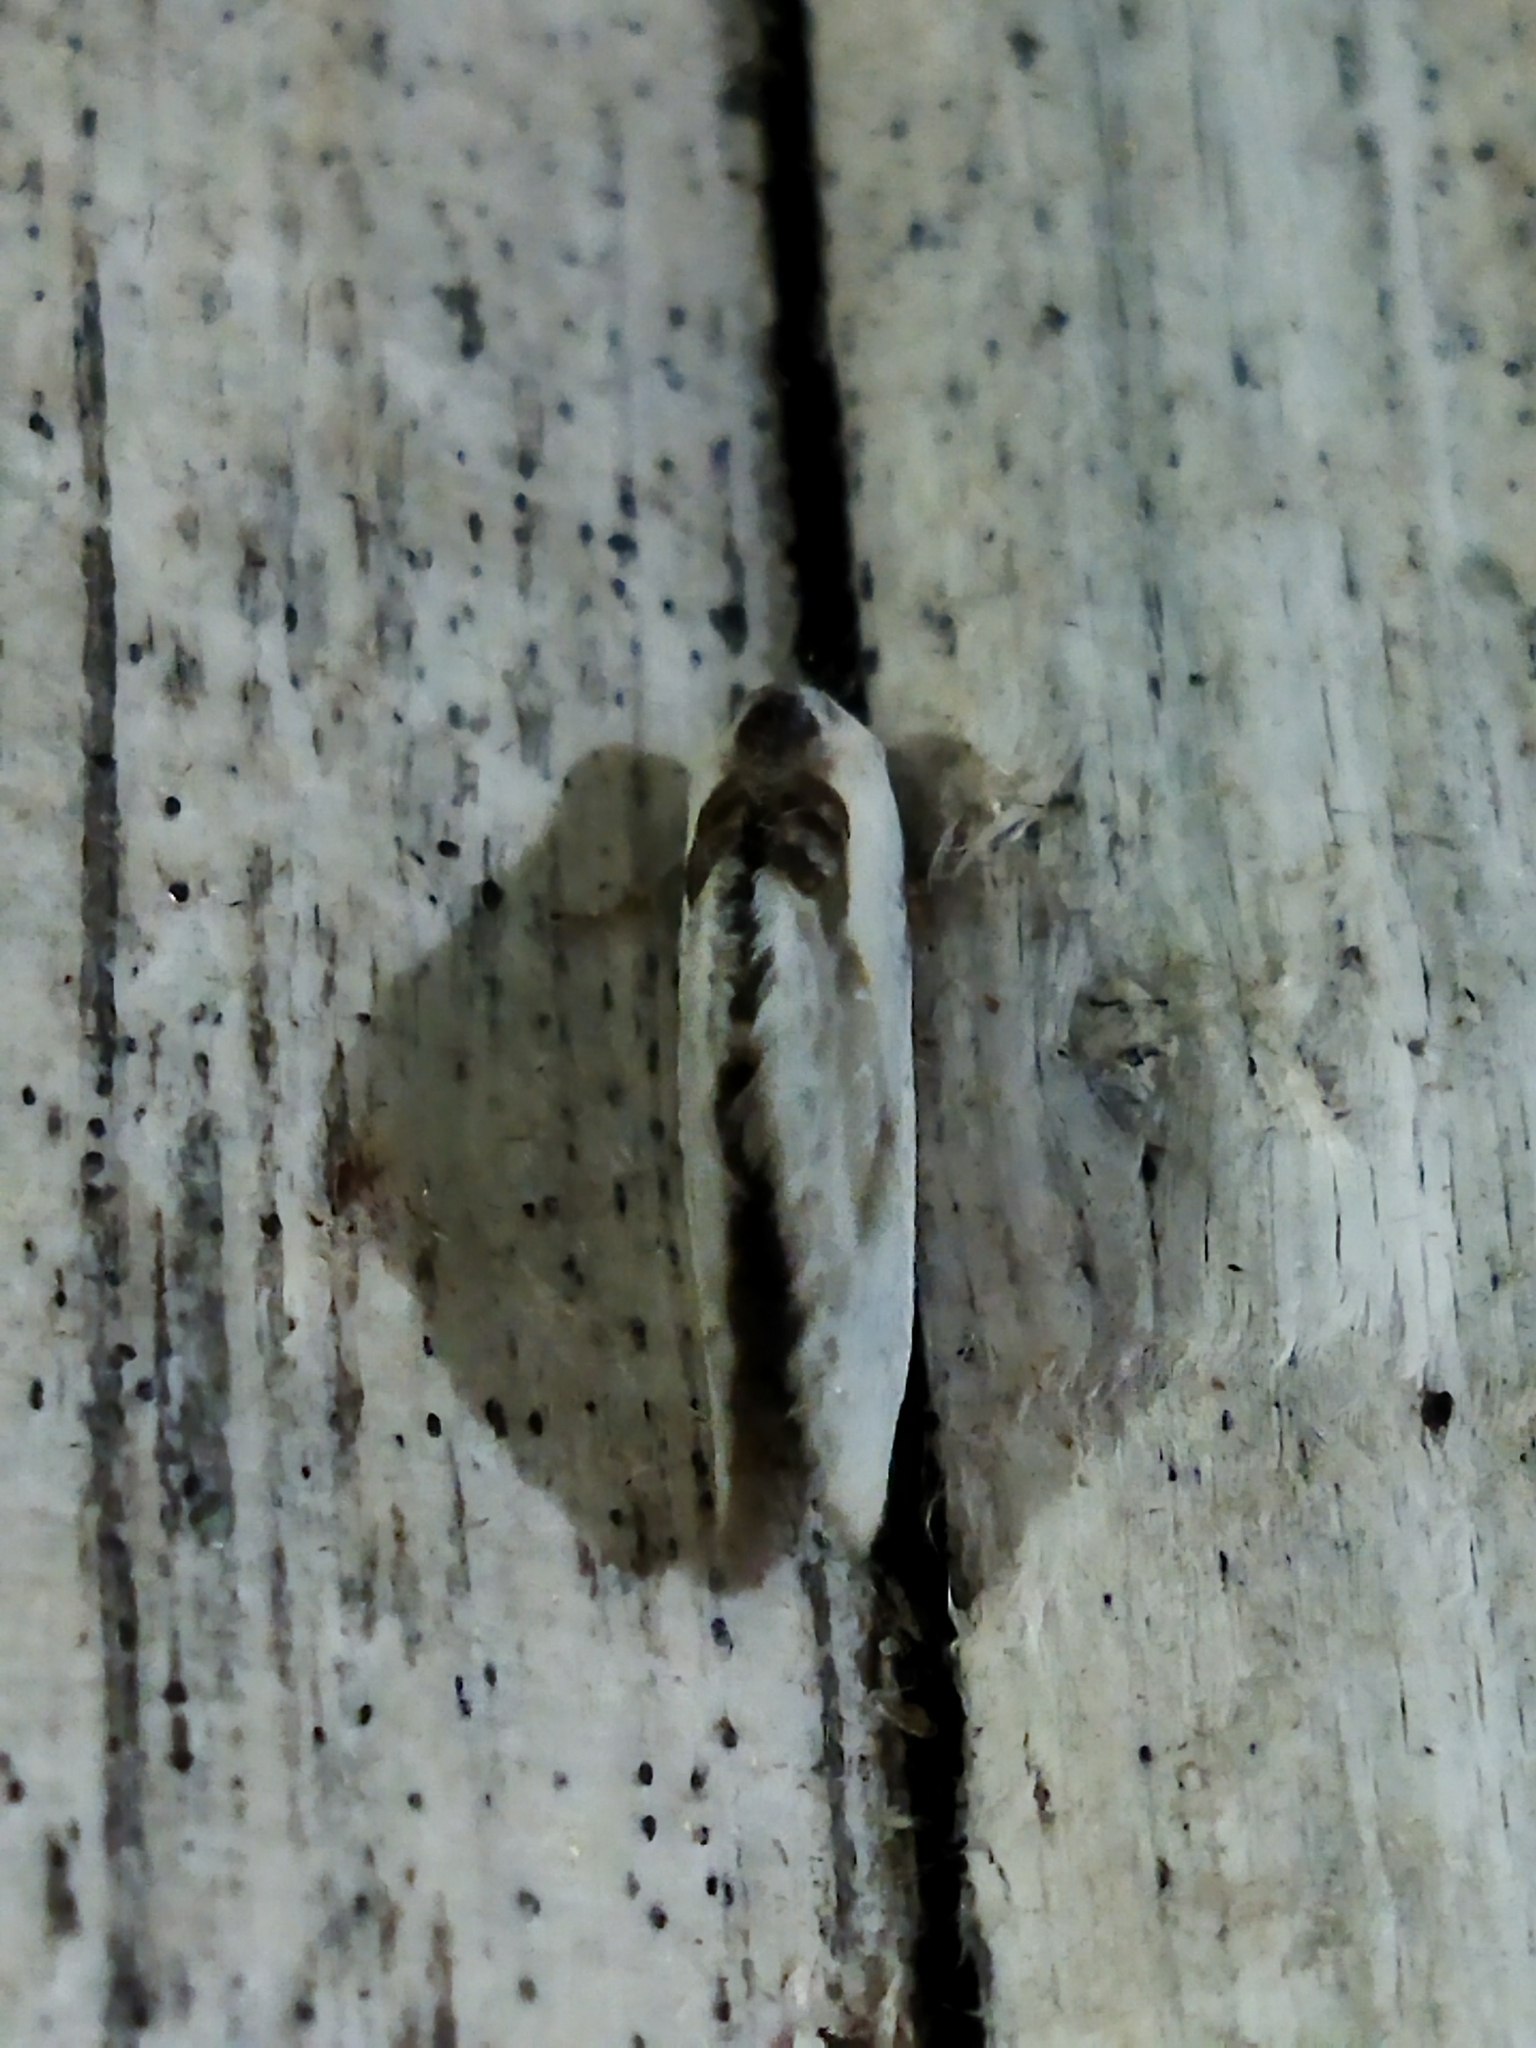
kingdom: Animalia
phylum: Arthropoda
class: Insecta
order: Lepidoptera
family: Drepanidae
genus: Cilix
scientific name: Cilix glaucata
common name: Chinese character
